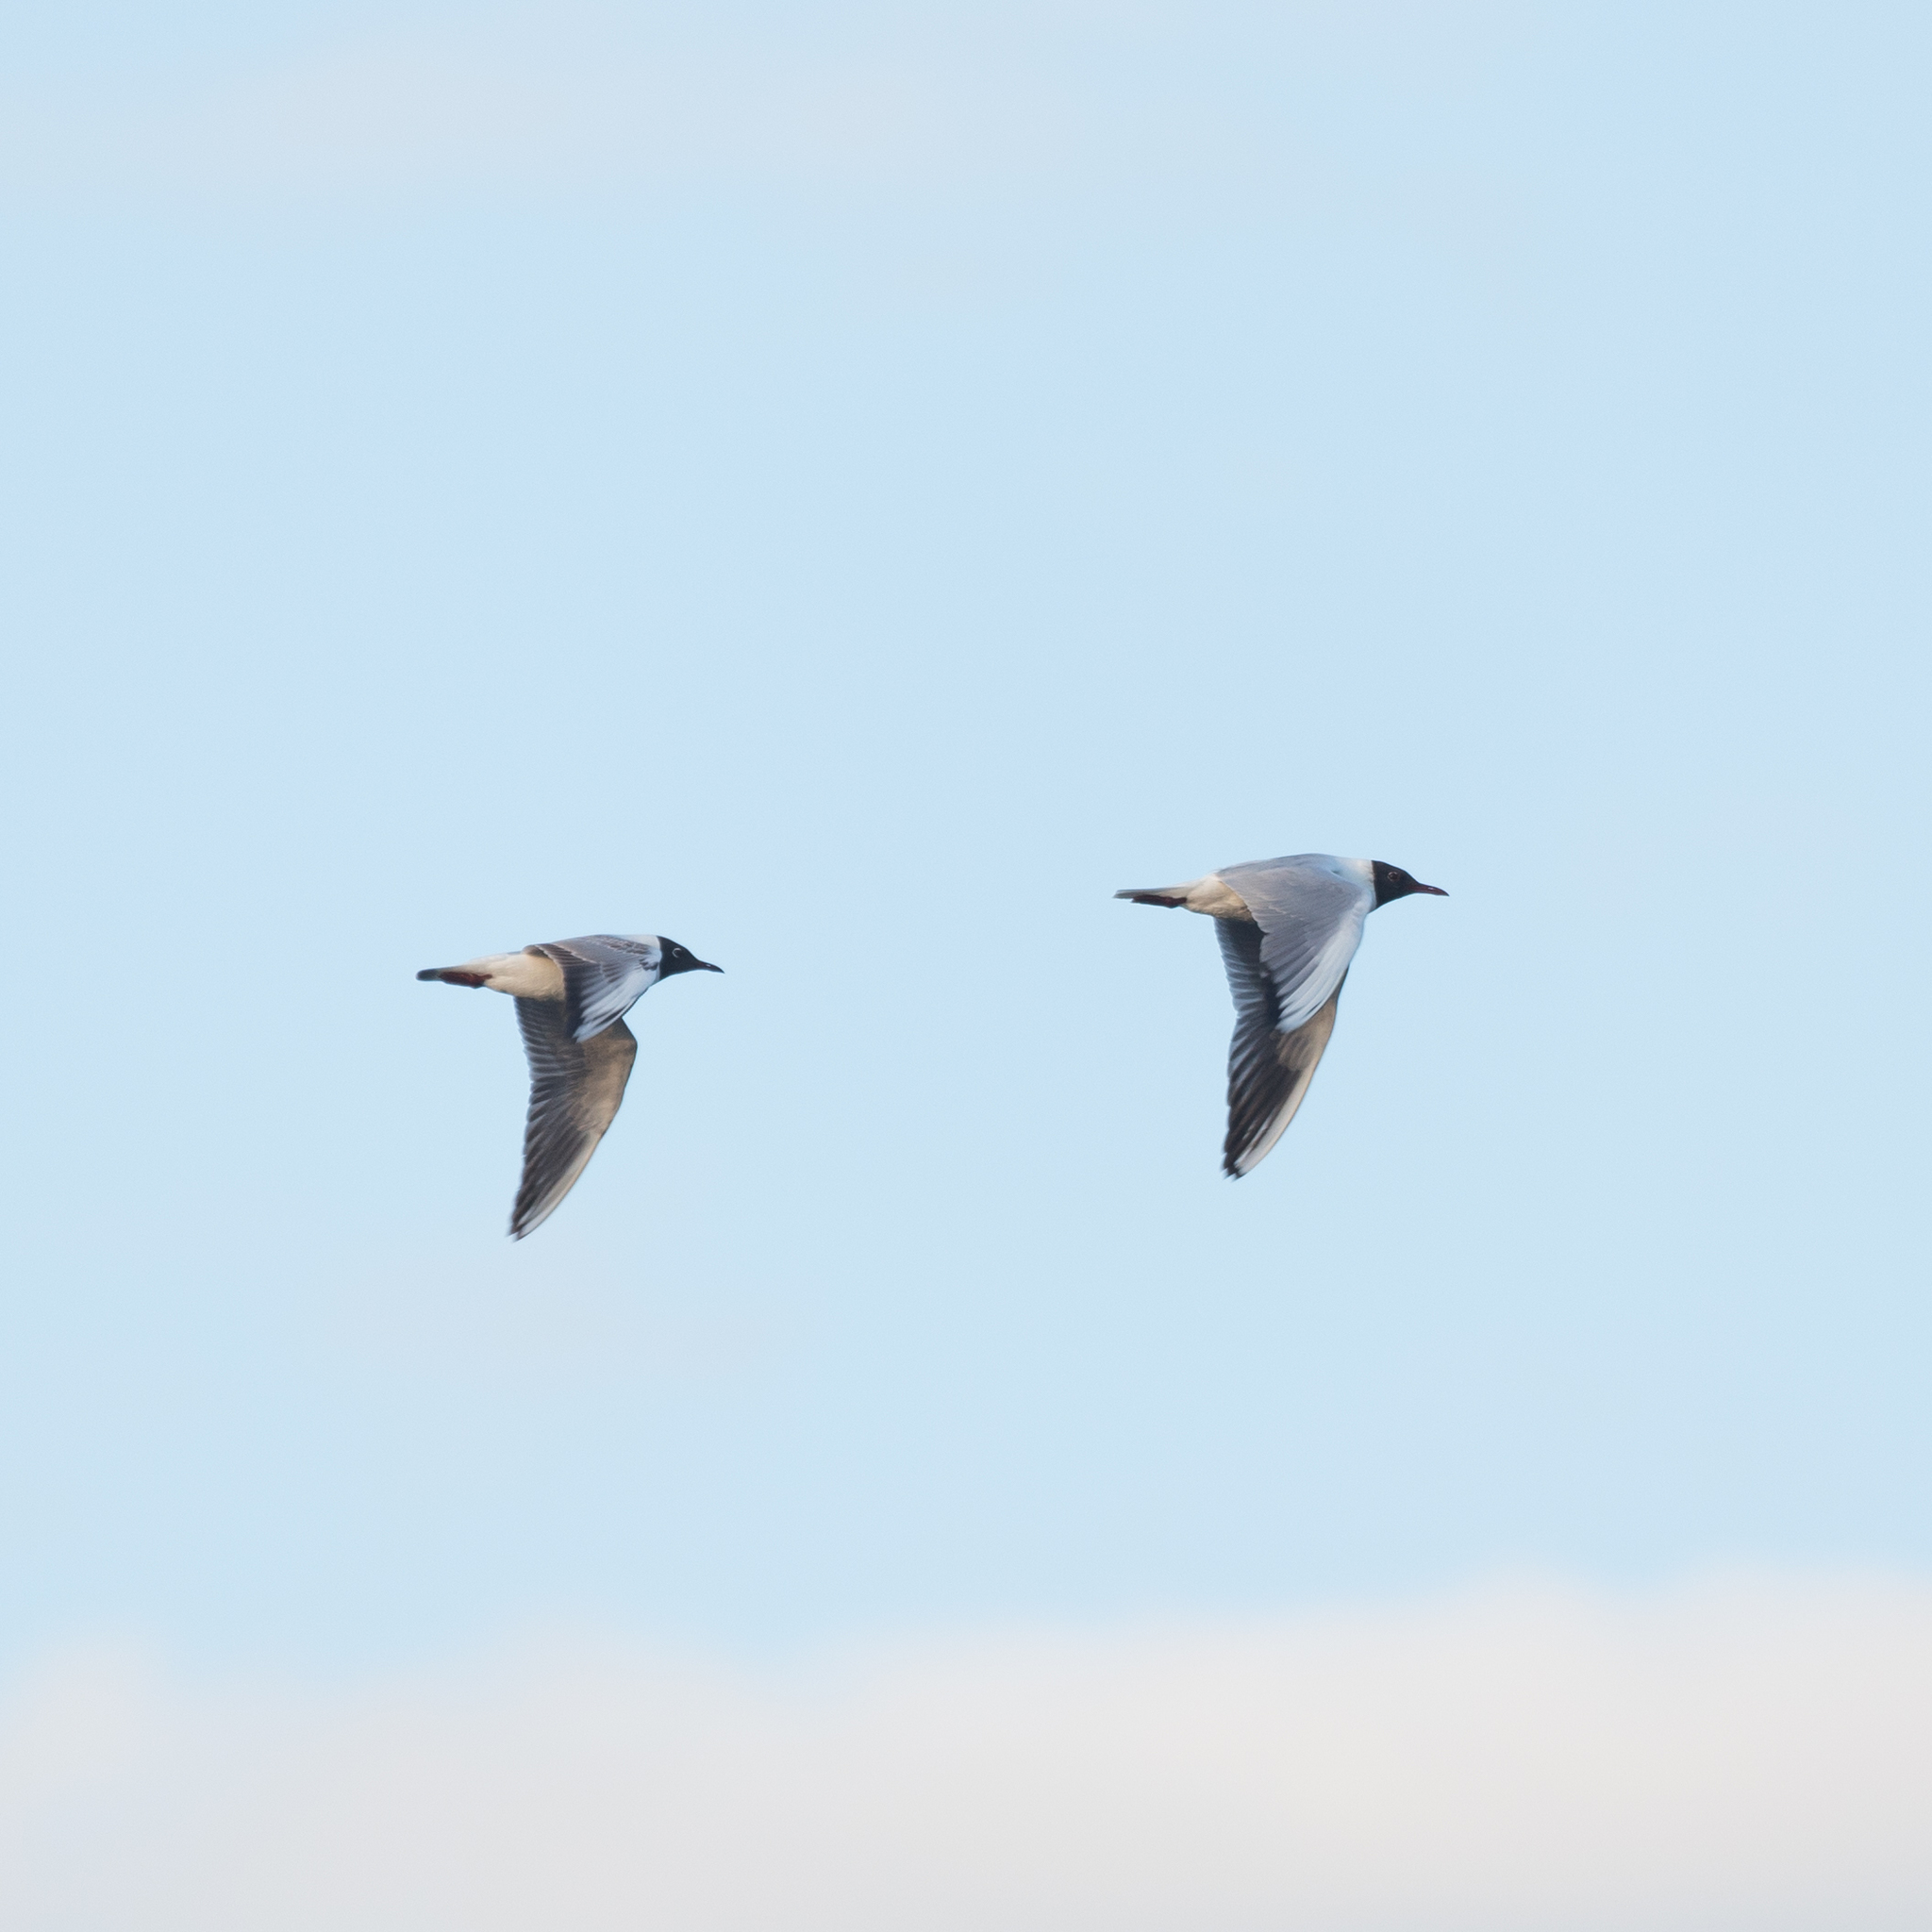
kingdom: Animalia
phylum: Chordata
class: Aves
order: Charadriiformes
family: Laridae
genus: Chroicocephalus
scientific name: Chroicocephalus ridibundus
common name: Black-headed gull
